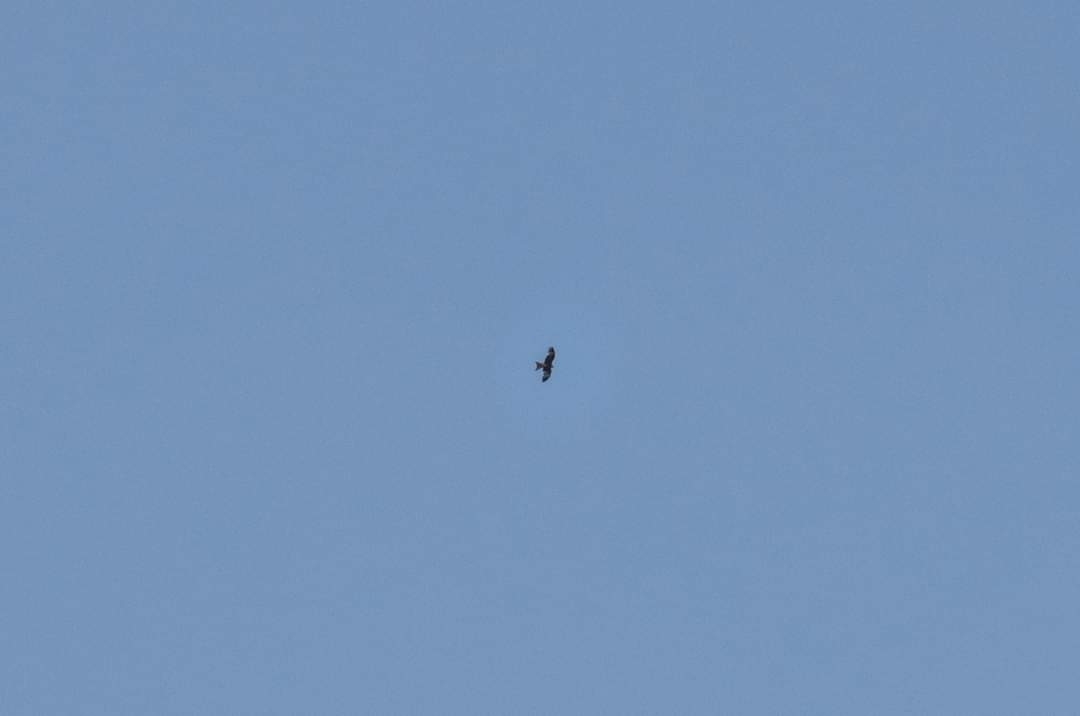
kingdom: Animalia
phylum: Chordata
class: Aves
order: Accipitriformes
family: Accipitridae
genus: Milvus
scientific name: Milvus milvus
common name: Red kite
